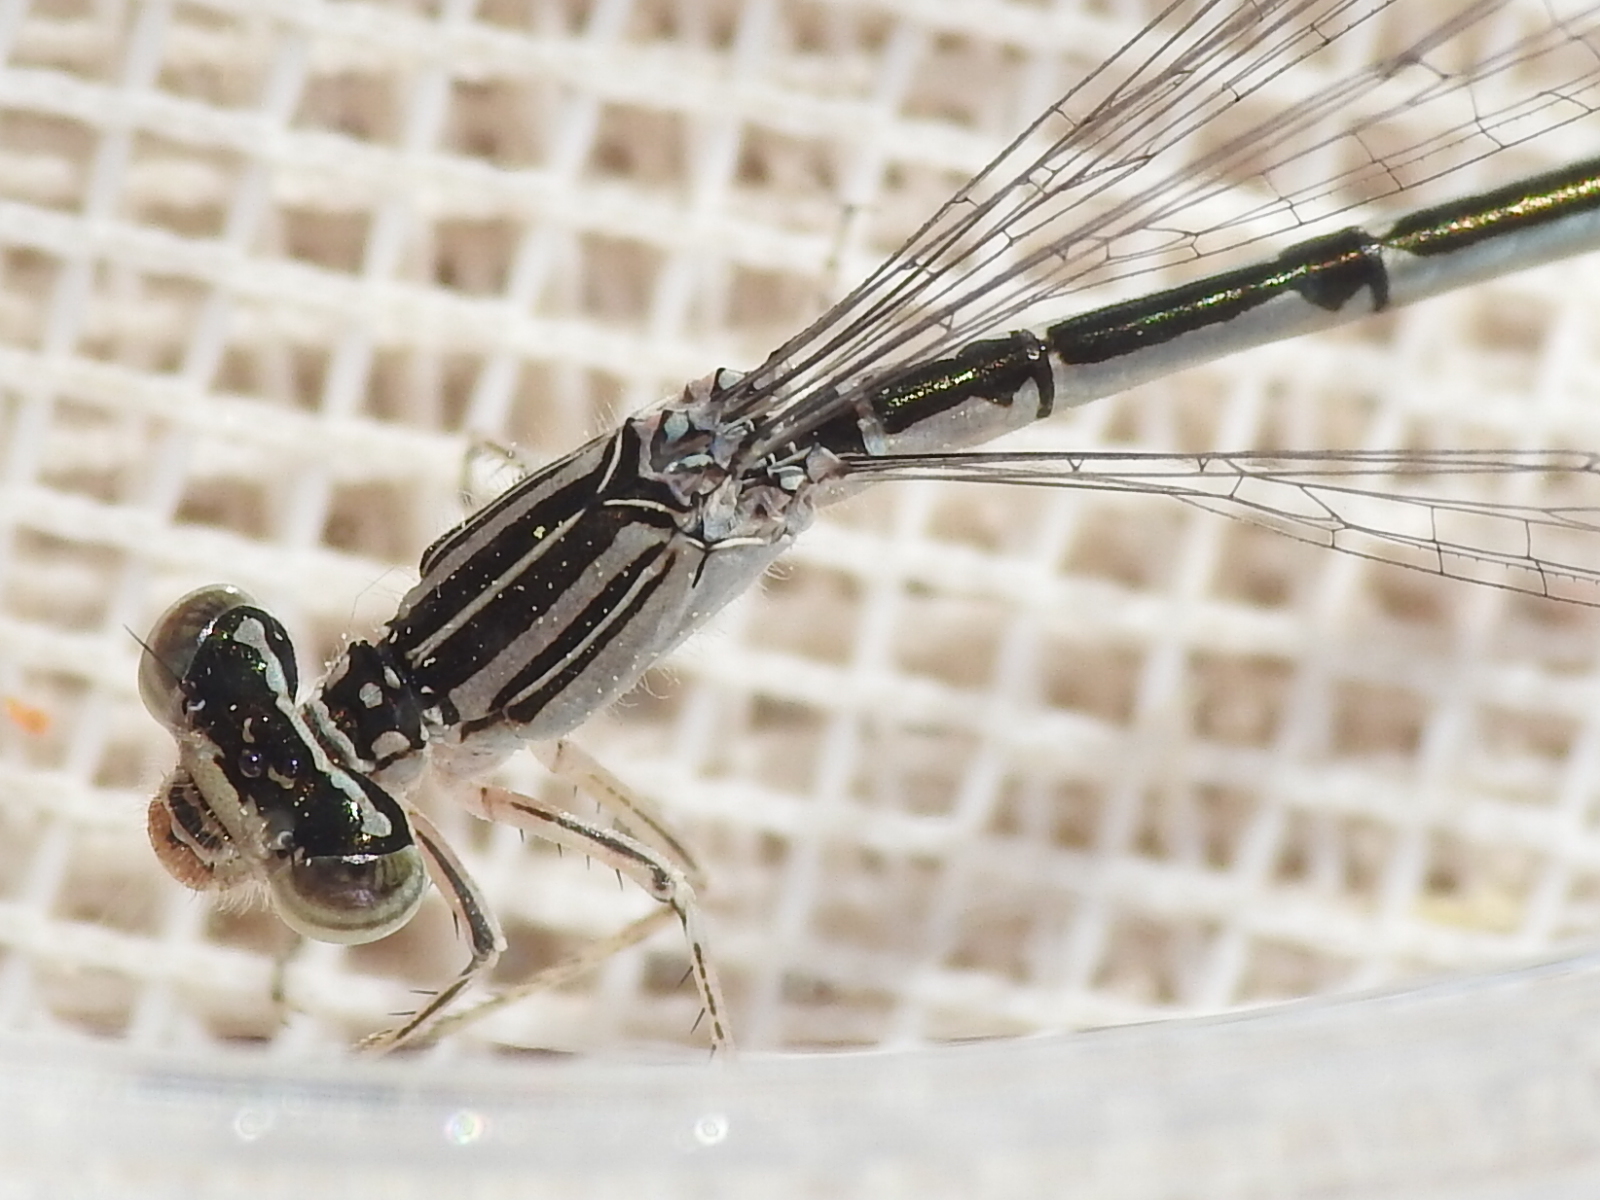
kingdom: Animalia
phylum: Arthropoda
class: Insecta
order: Odonata
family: Coenagrionidae
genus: Enallagma
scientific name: Enallagma basidens
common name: Double-striped bluet
